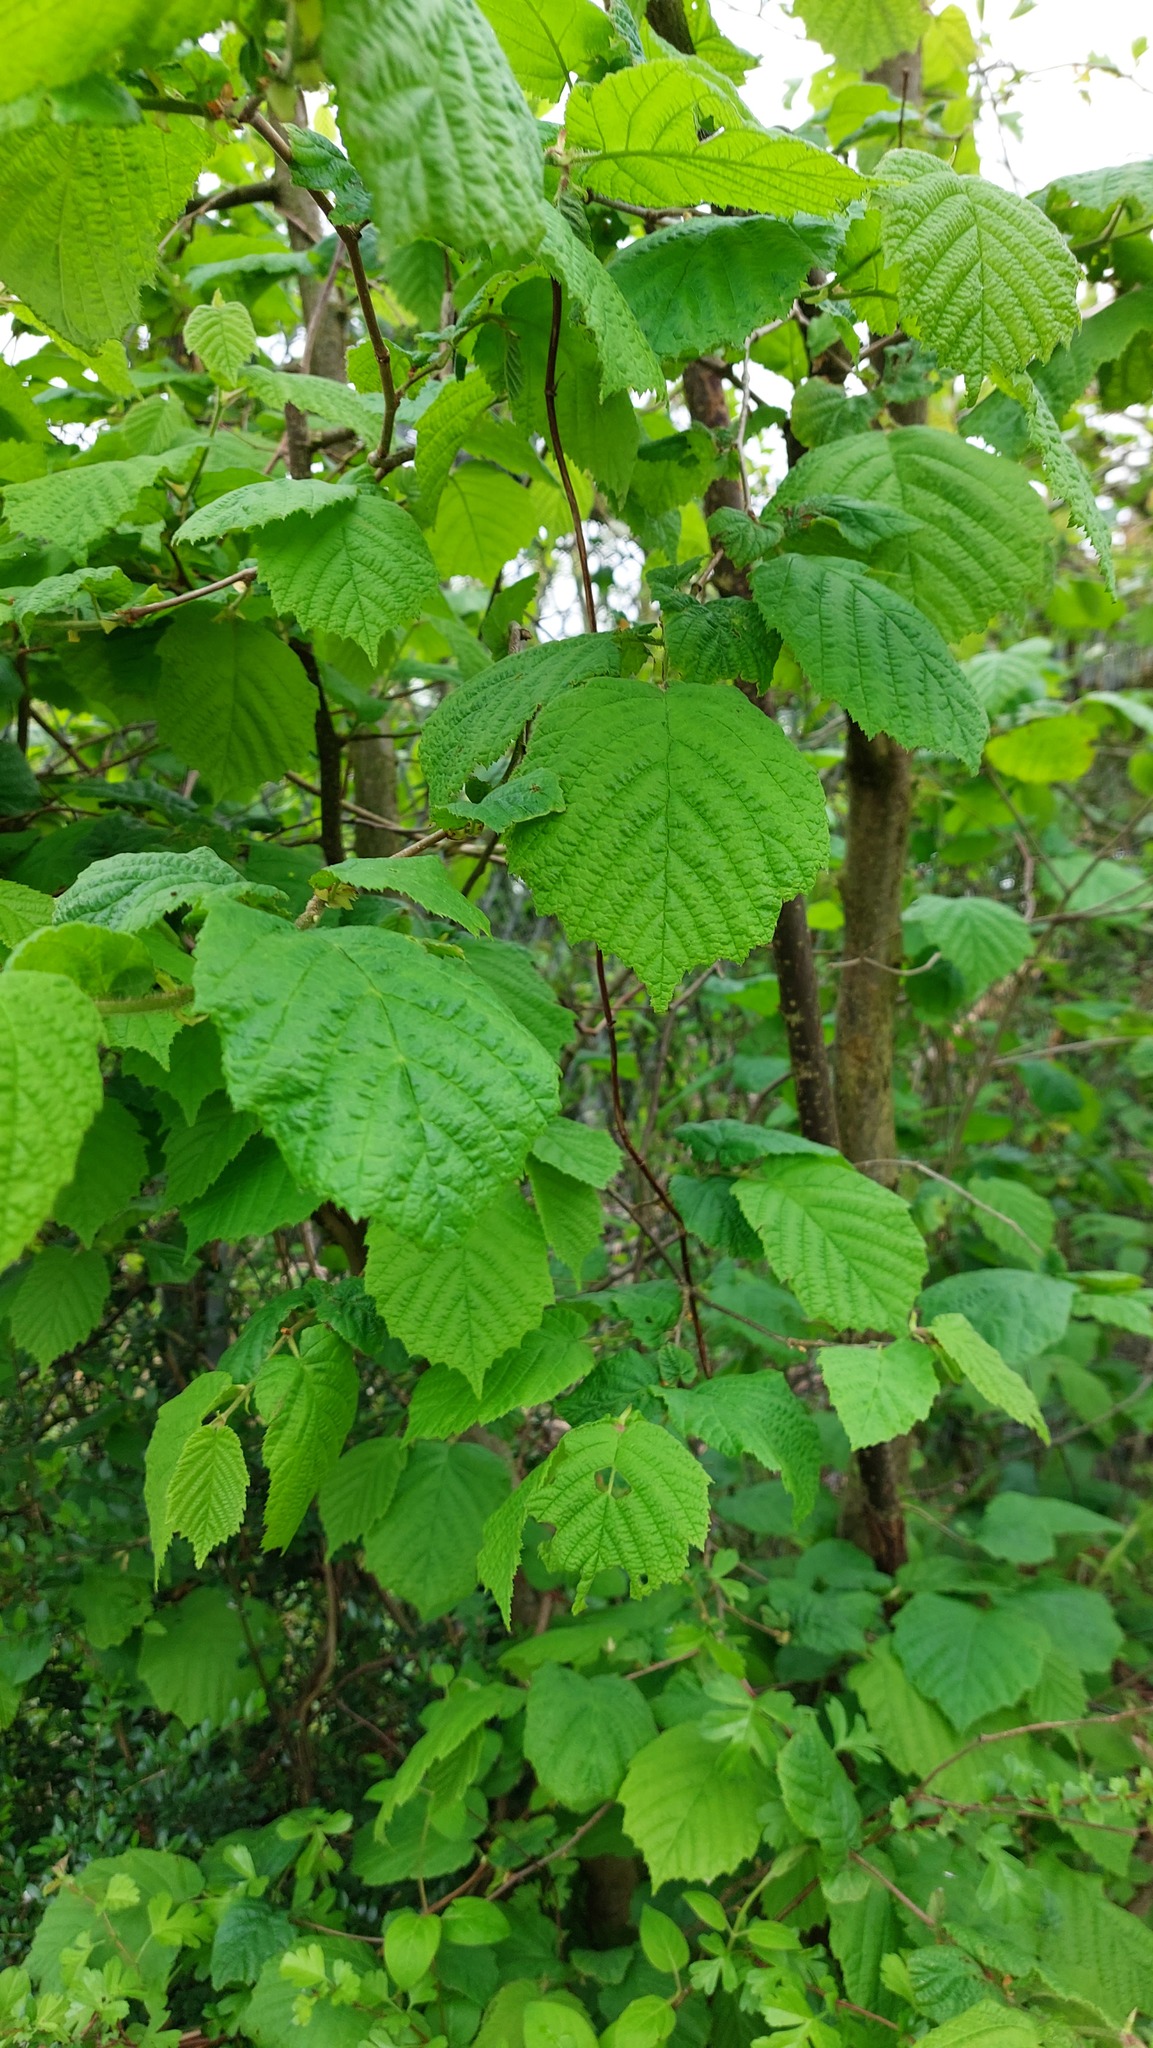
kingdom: Plantae
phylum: Tracheophyta
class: Magnoliopsida
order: Fagales
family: Betulaceae
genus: Corylus
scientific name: Corylus avellana
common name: European hazel
